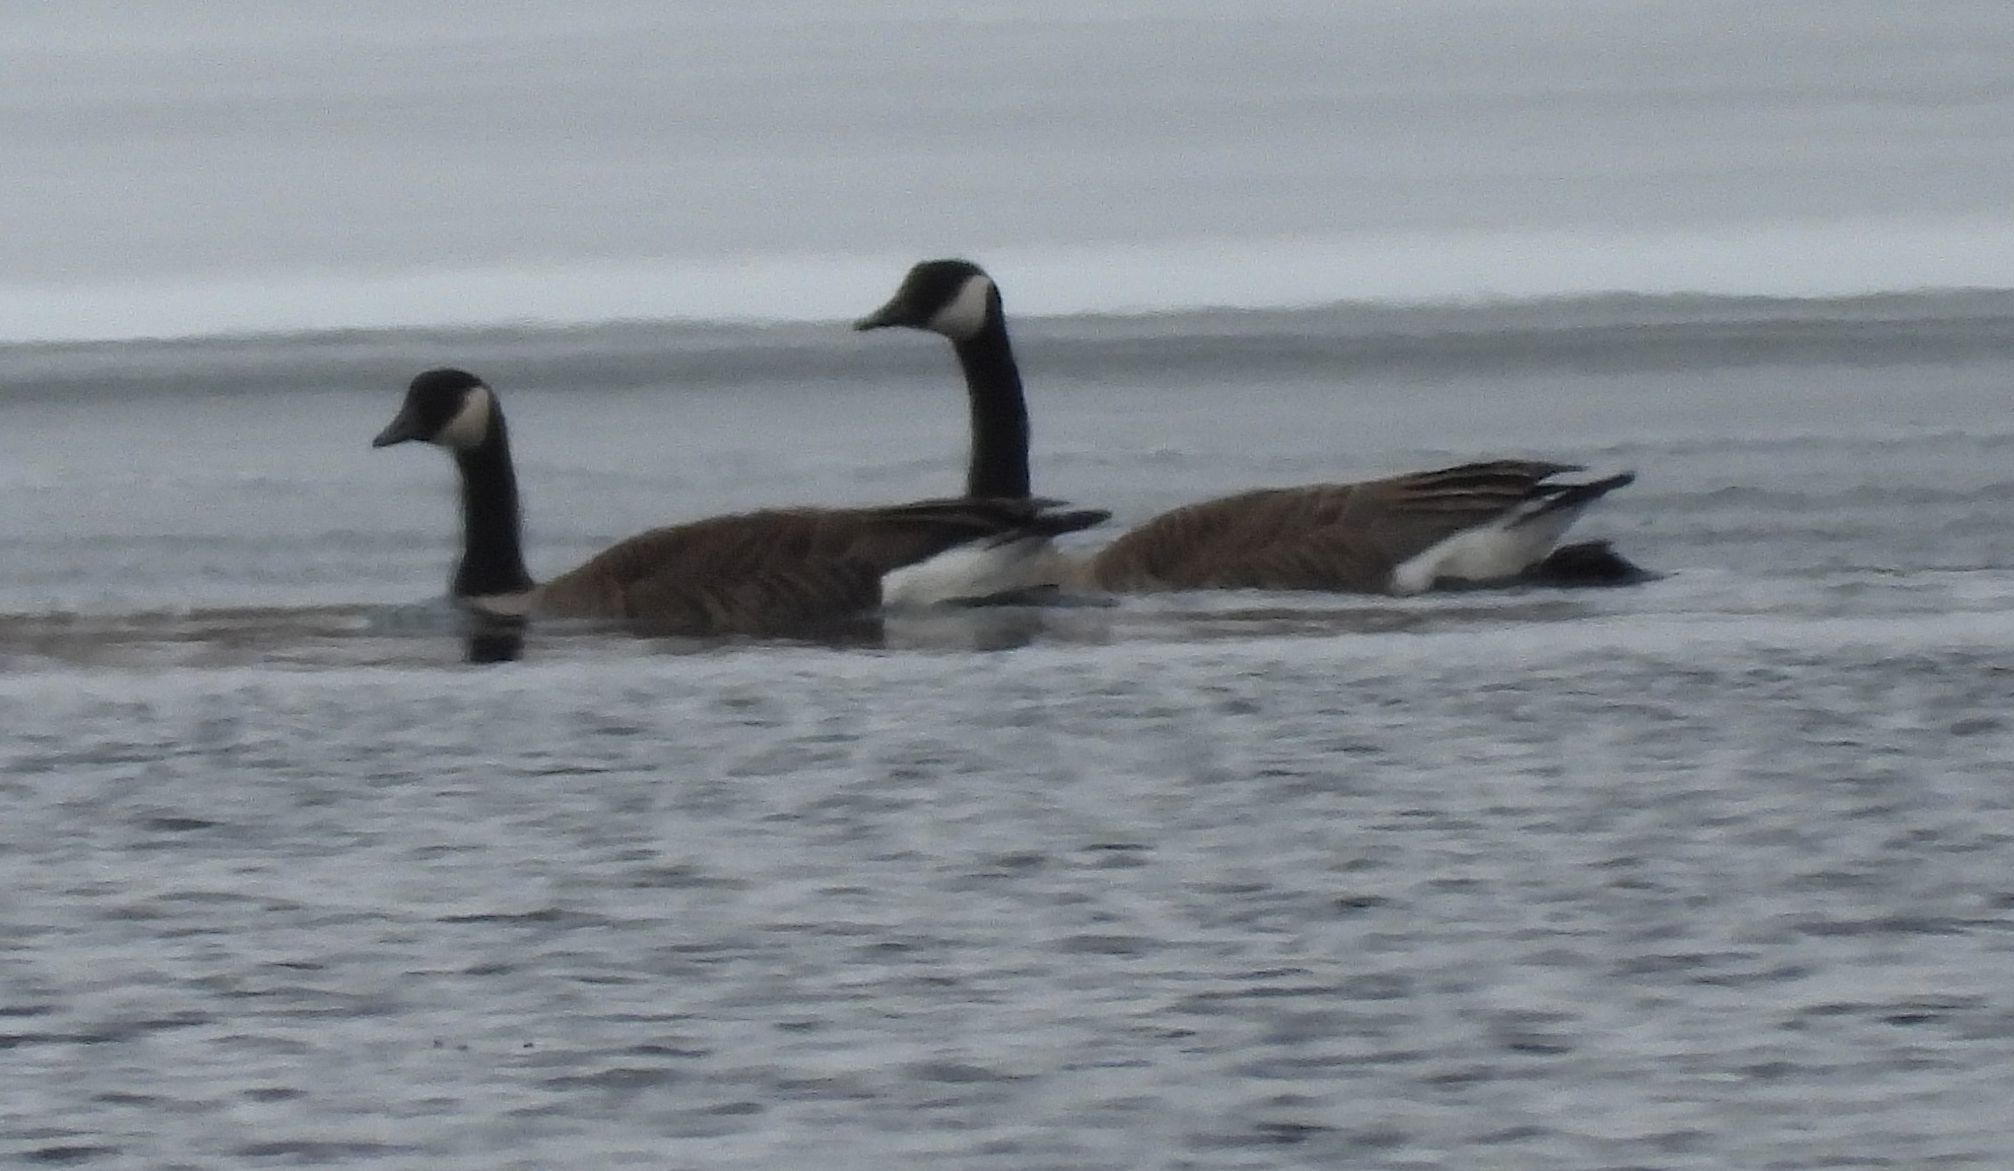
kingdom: Animalia
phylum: Chordata
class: Aves
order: Anseriformes
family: Anatidae
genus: Branta
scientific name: Branta canadensis
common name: Canada goose
